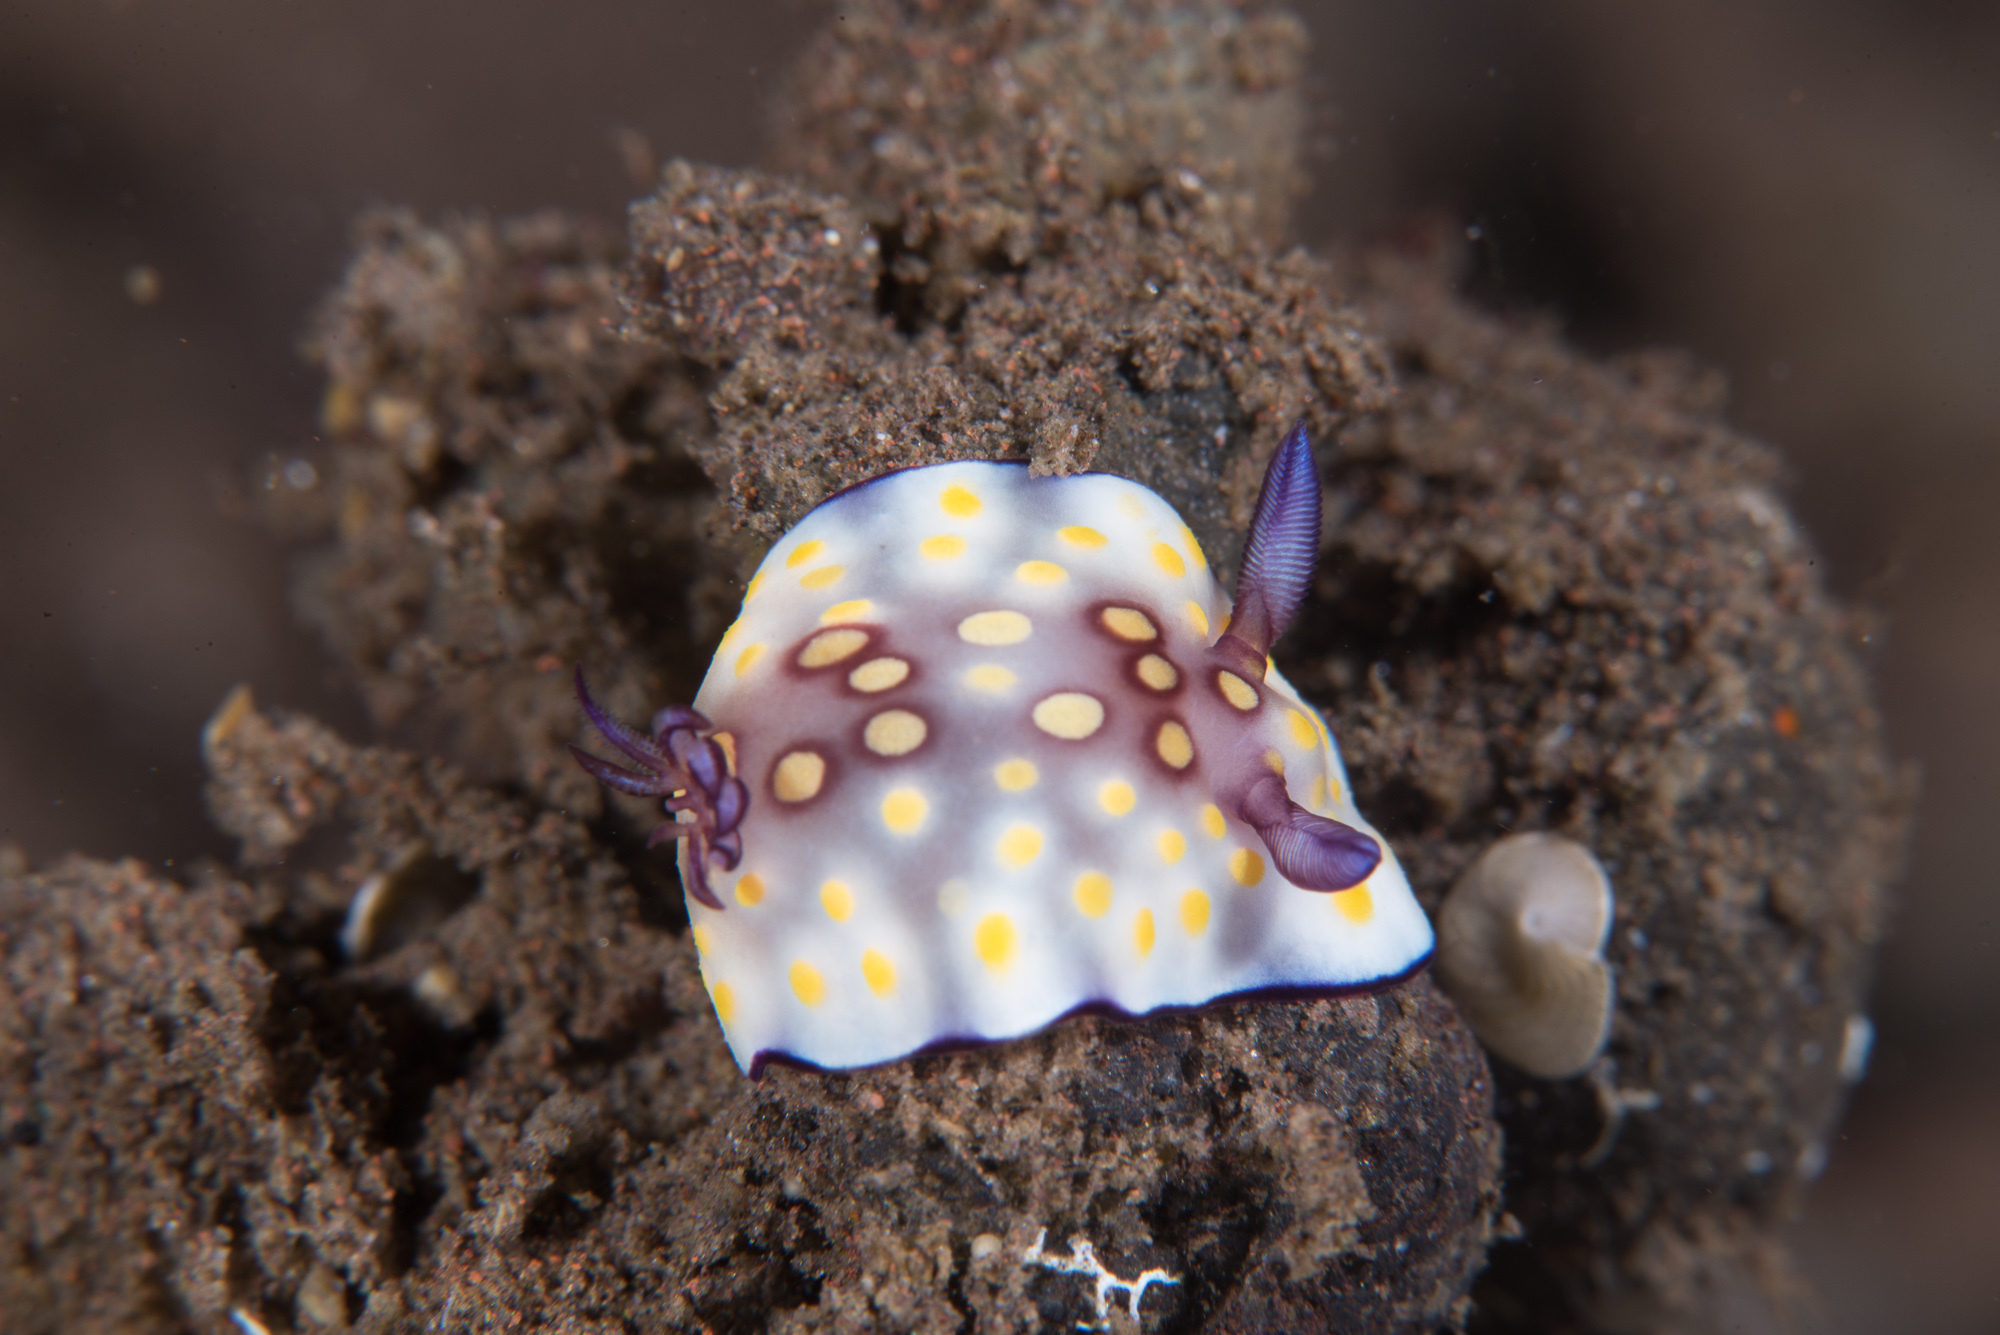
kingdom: Animalia
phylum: Mollusca
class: Gastropoda
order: Nudibranchia
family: Chromodorididae
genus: Goniobranchus
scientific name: Goniobranchus hintuanensis
